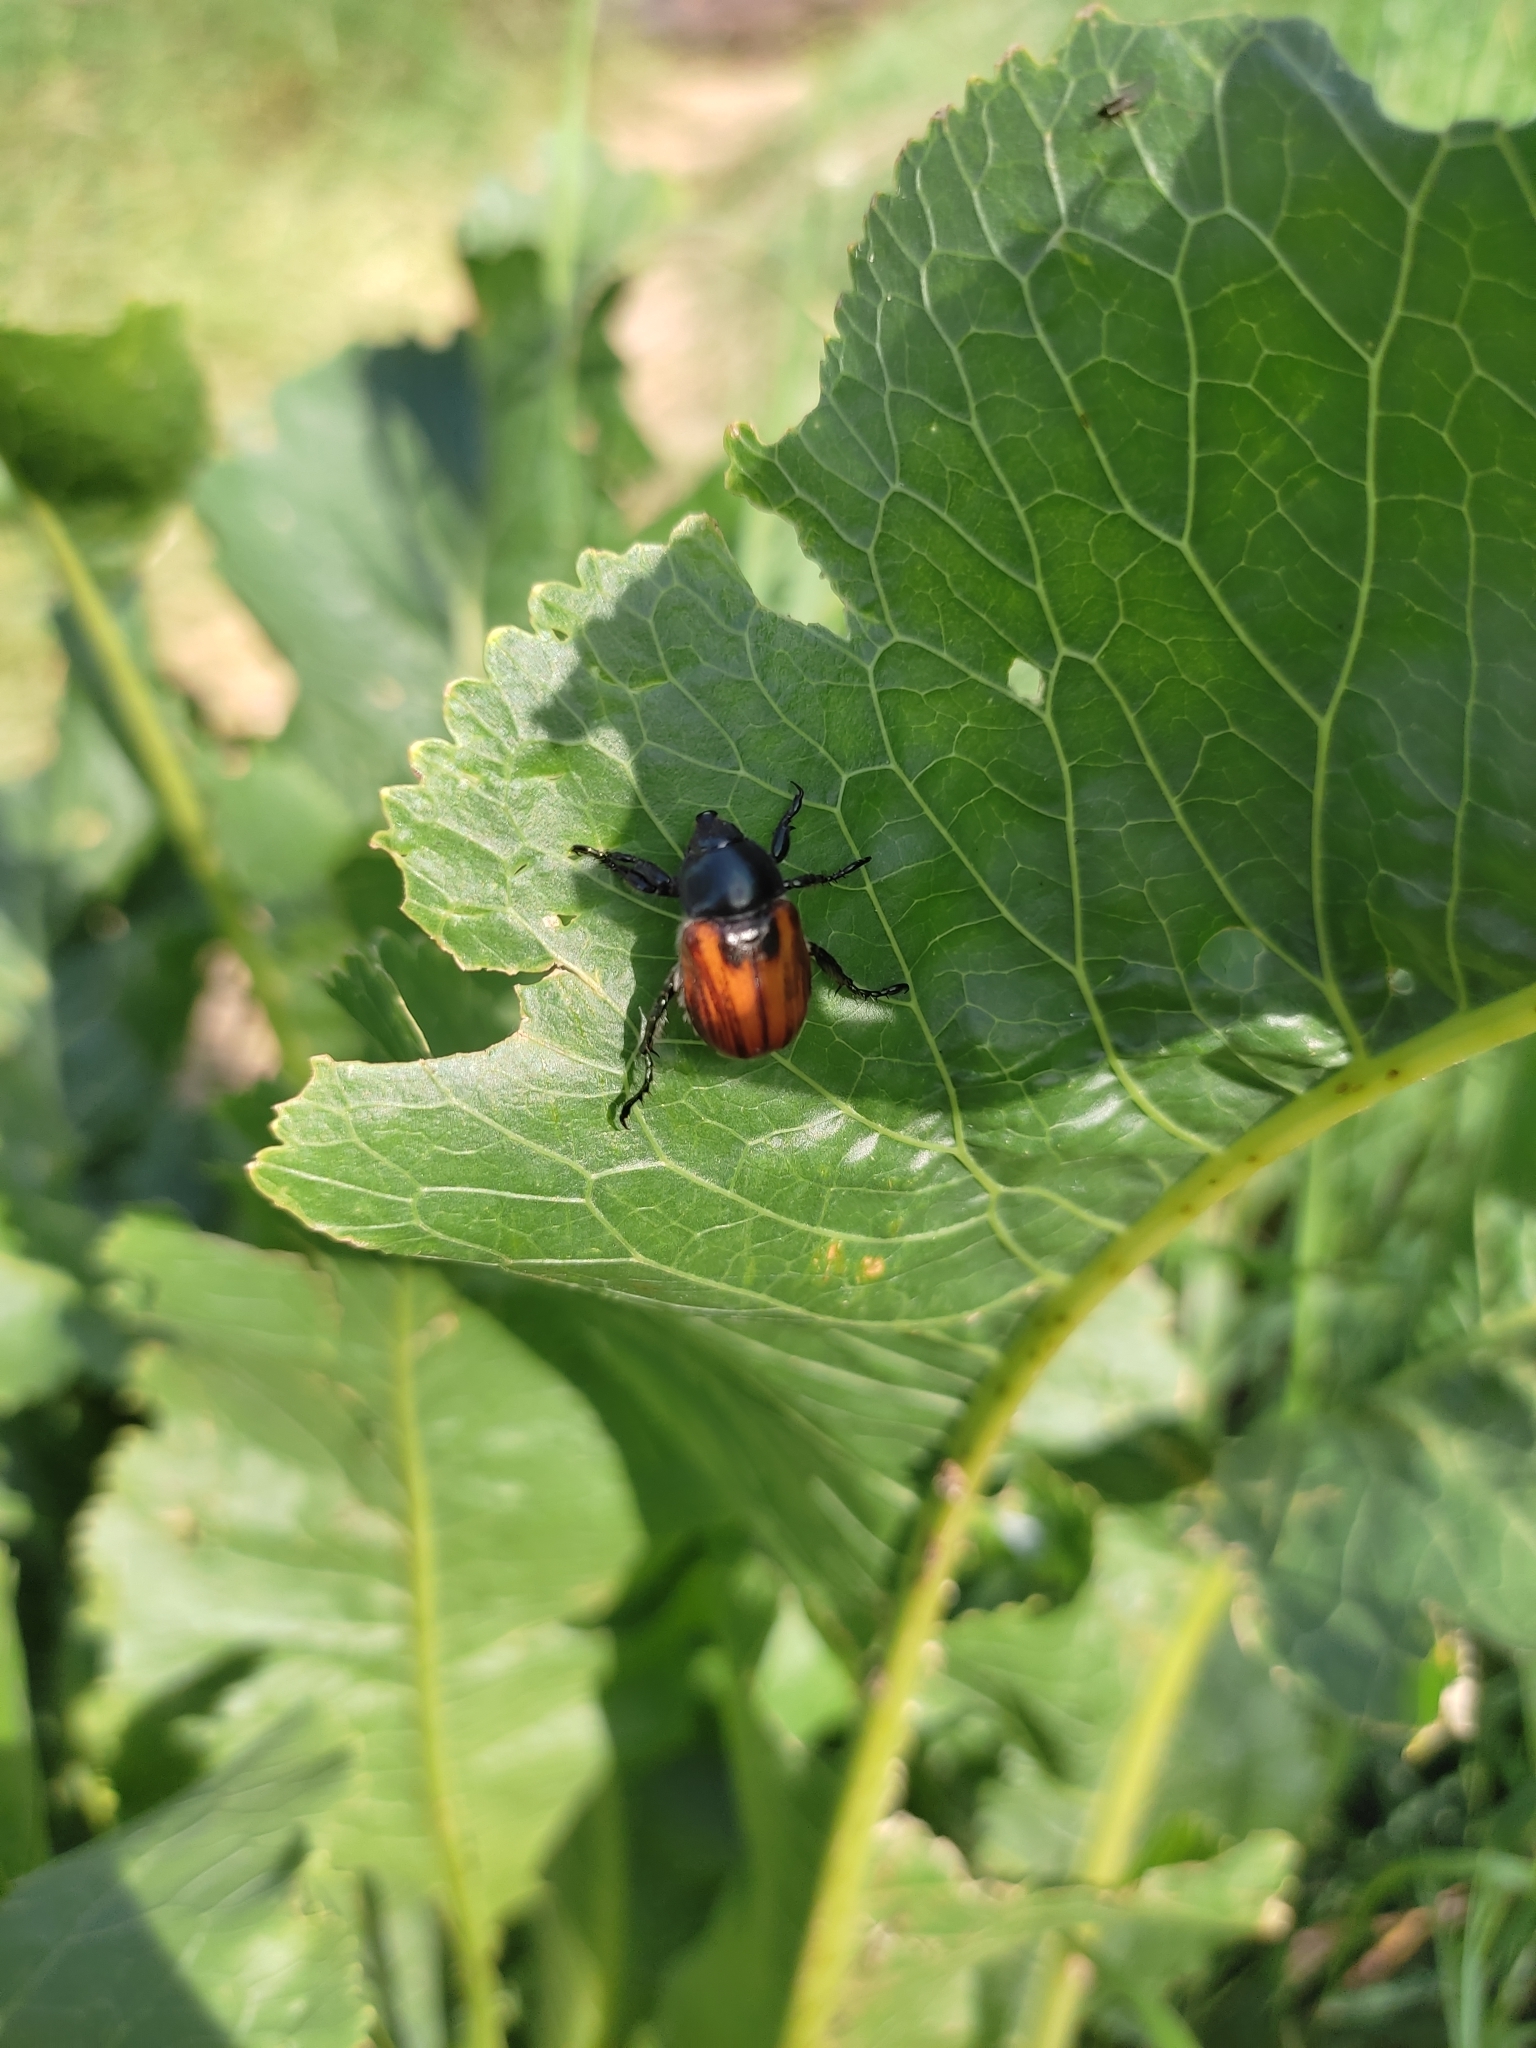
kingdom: Animalia
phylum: Arthropoda
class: Insecta
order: Coleoptera
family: Scarabaeidae
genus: Anisoplia
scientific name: Anisoplia austriaca
